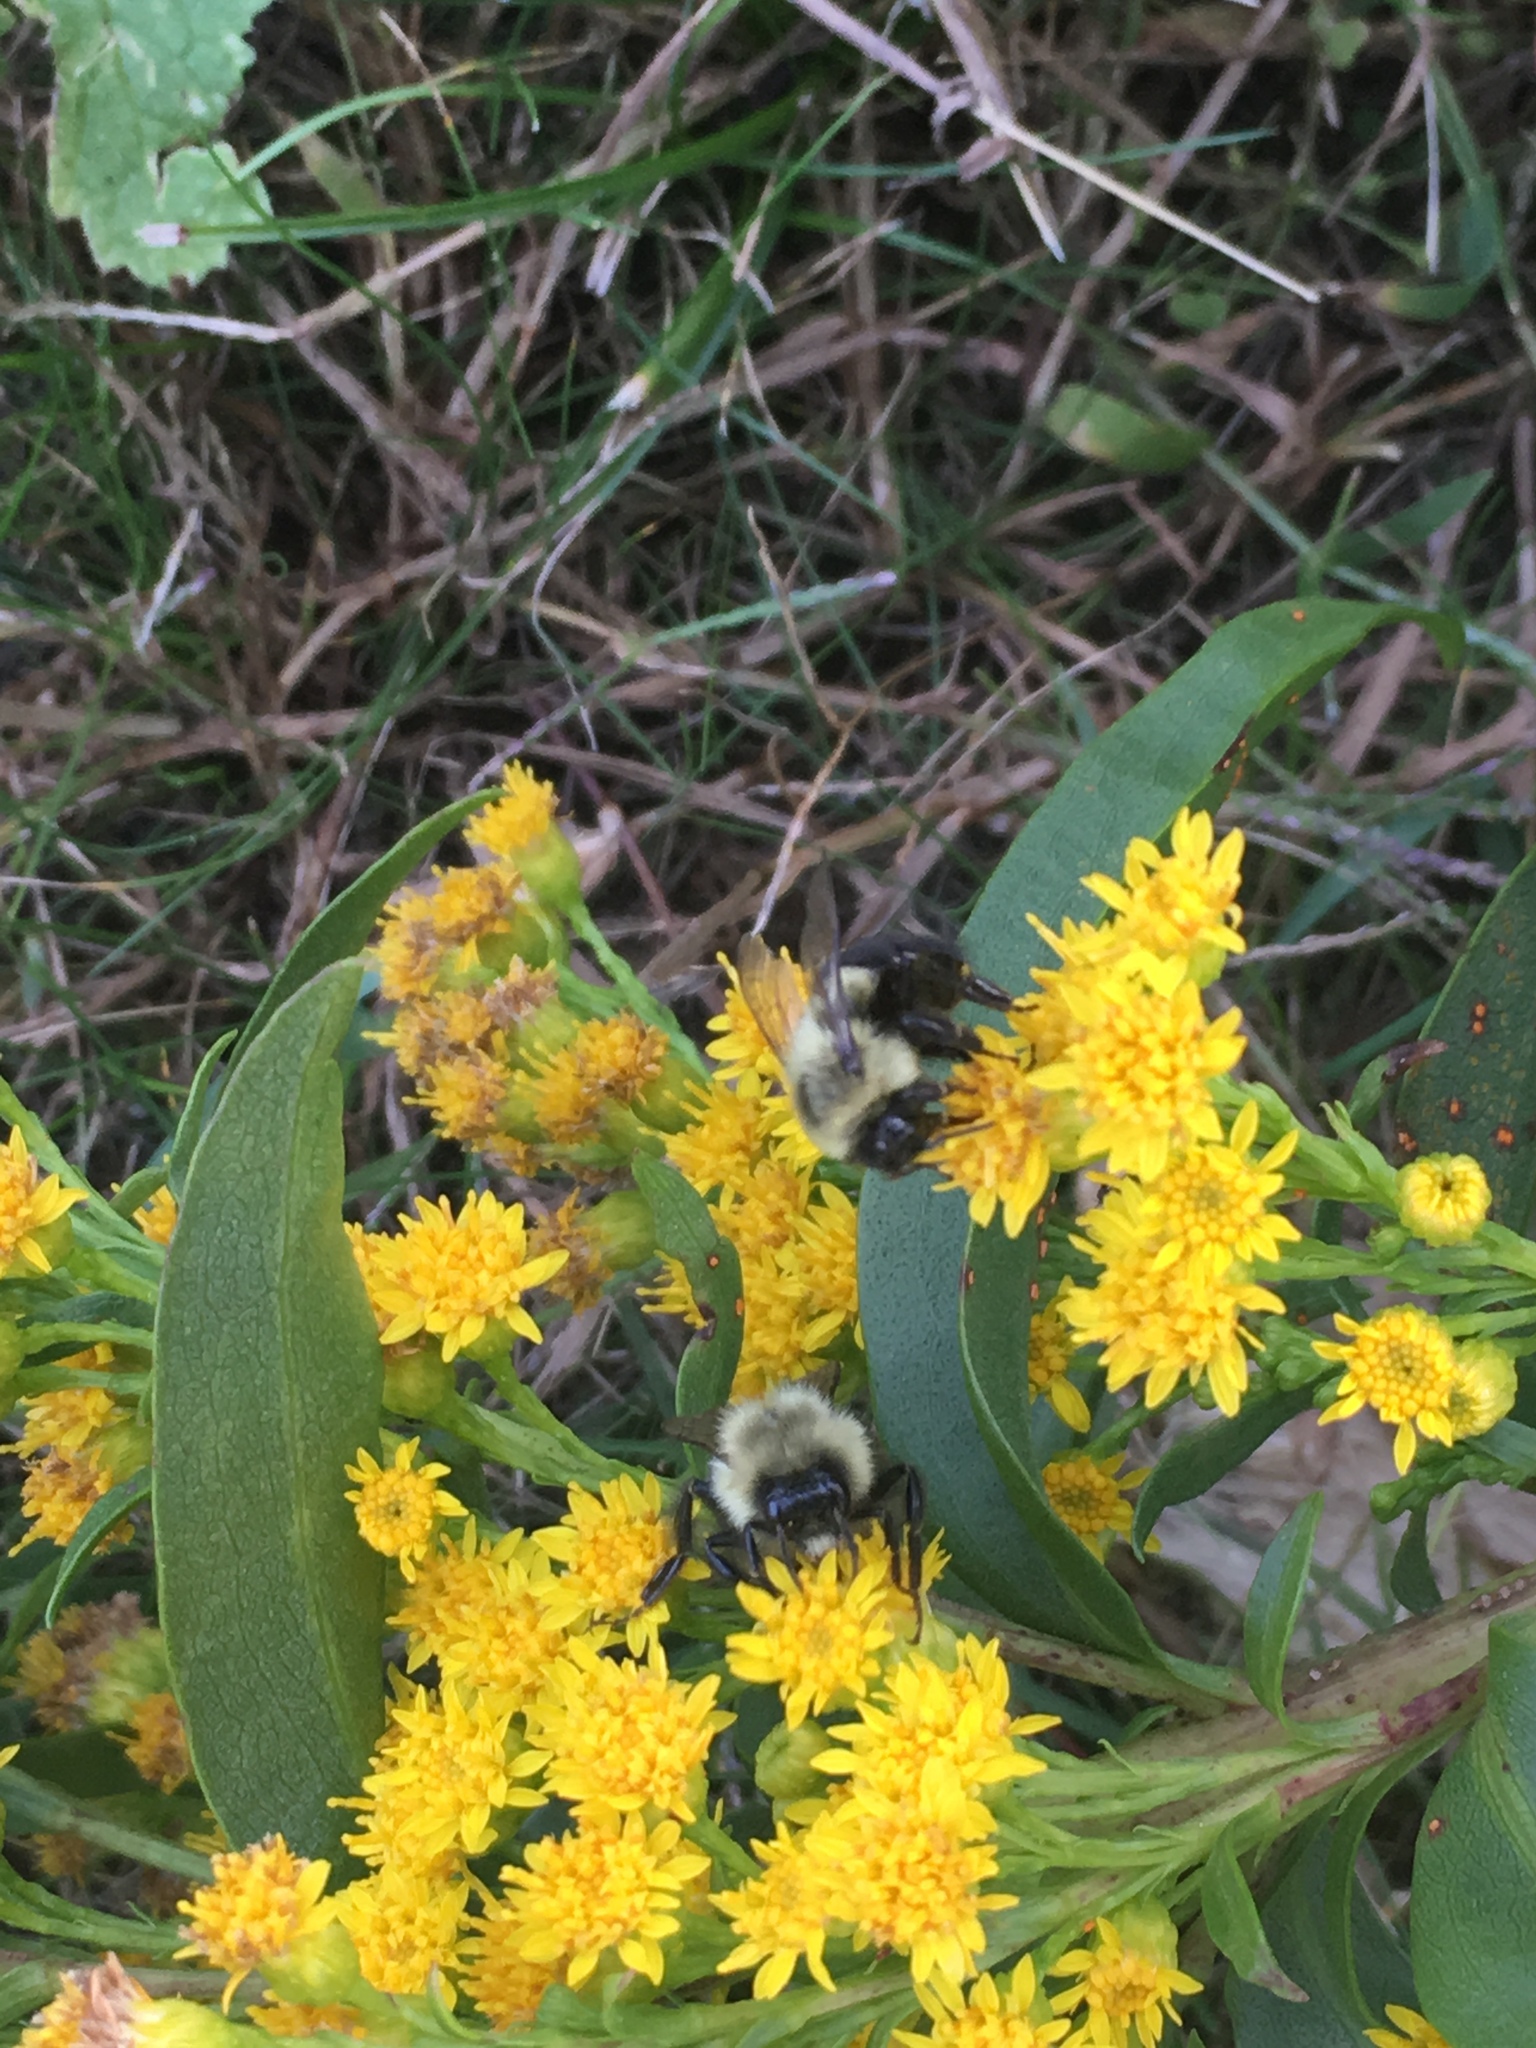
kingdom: Animalia
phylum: Arthropoda
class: Insecta
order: Hymenoptera
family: Apidae
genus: Bombus
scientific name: Bombus impatiens
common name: Common eastern bumble bee
